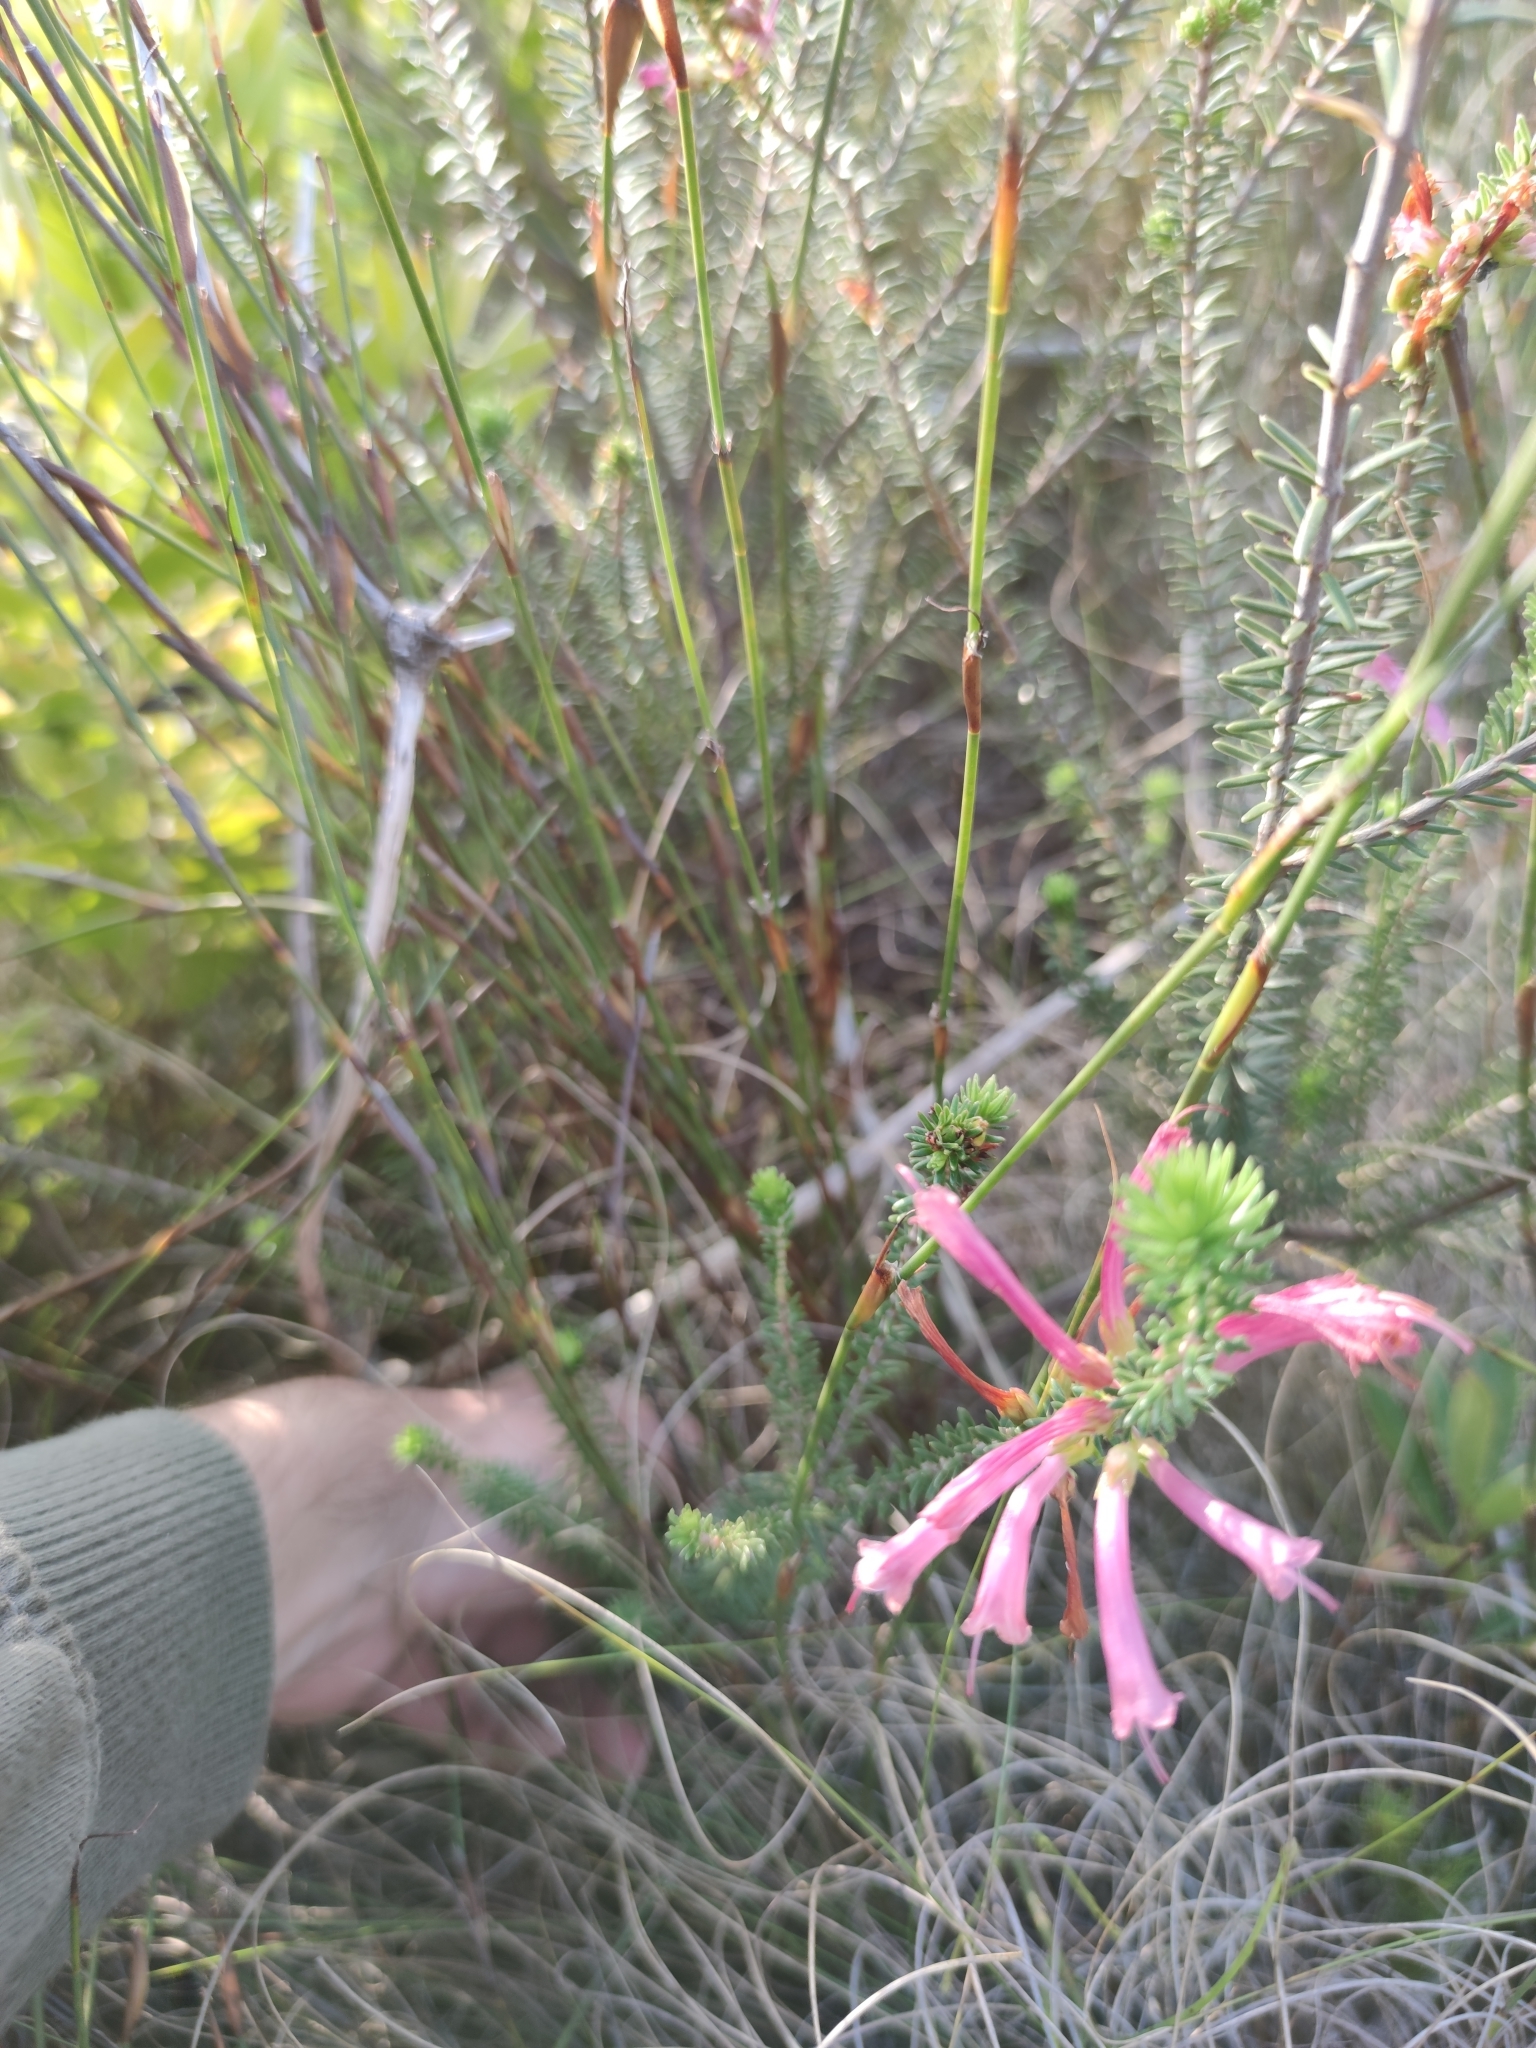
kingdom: Plantae
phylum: Tracheophyta
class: Magnoliopsida
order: Ericales
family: Ericaceae
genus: Erica
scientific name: Erica abietina
